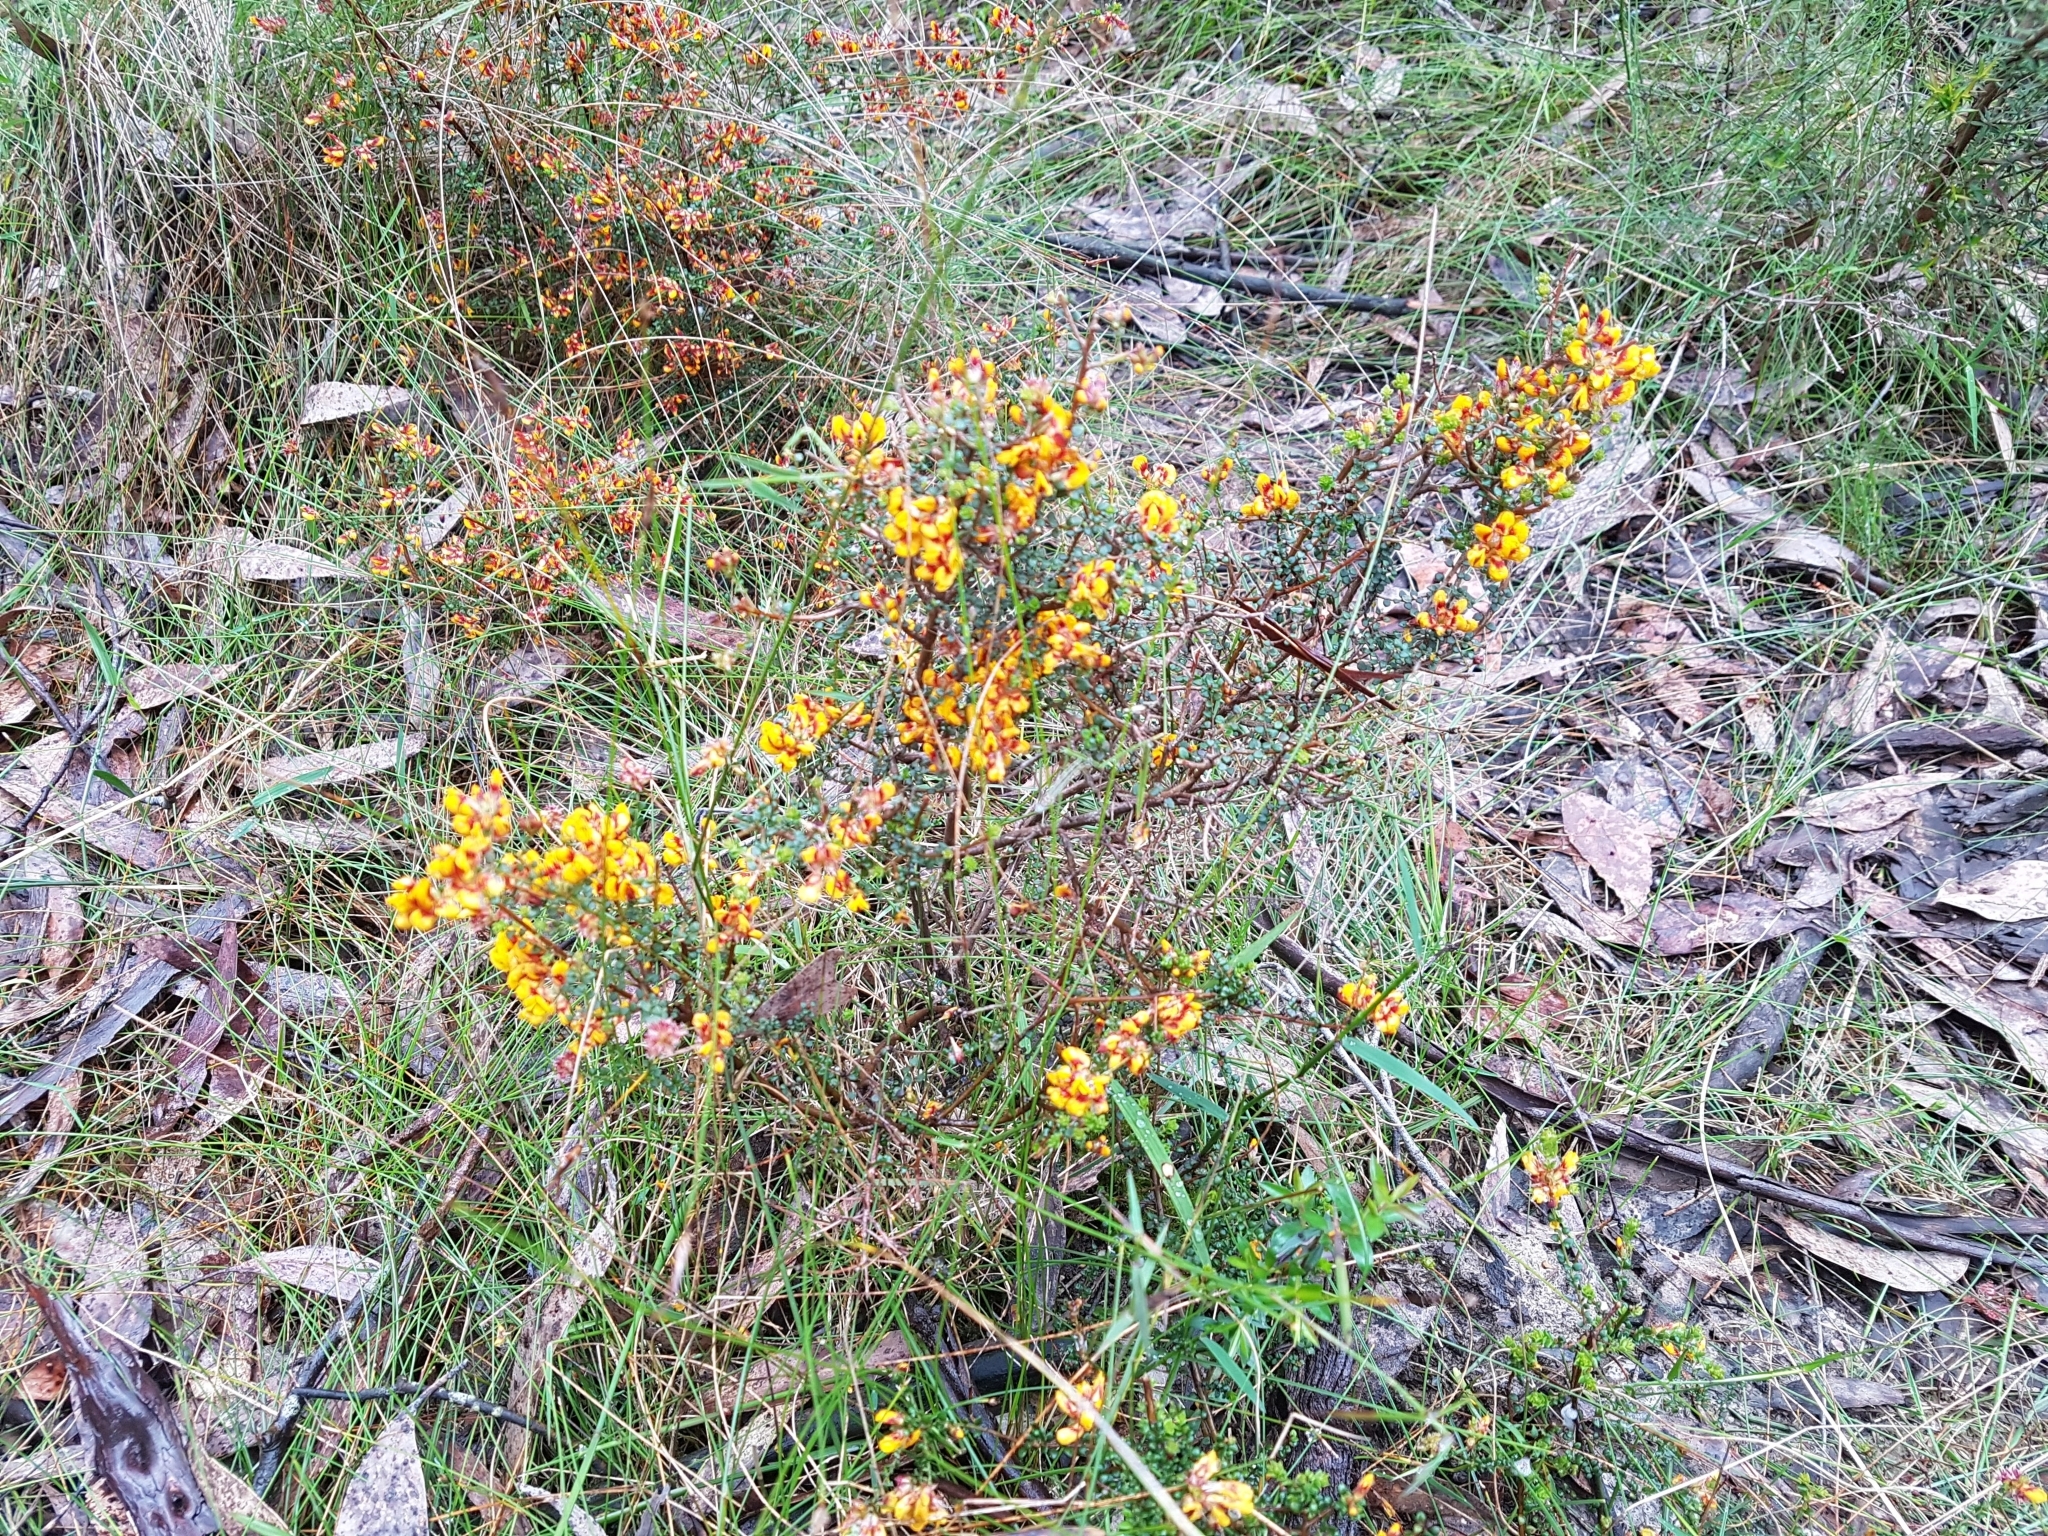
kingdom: Plantae
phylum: Tracheophyta
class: Magnoliopsida
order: Fabales
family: Fabaceae
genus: Pultenaea
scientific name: Pultenaea gunnii
